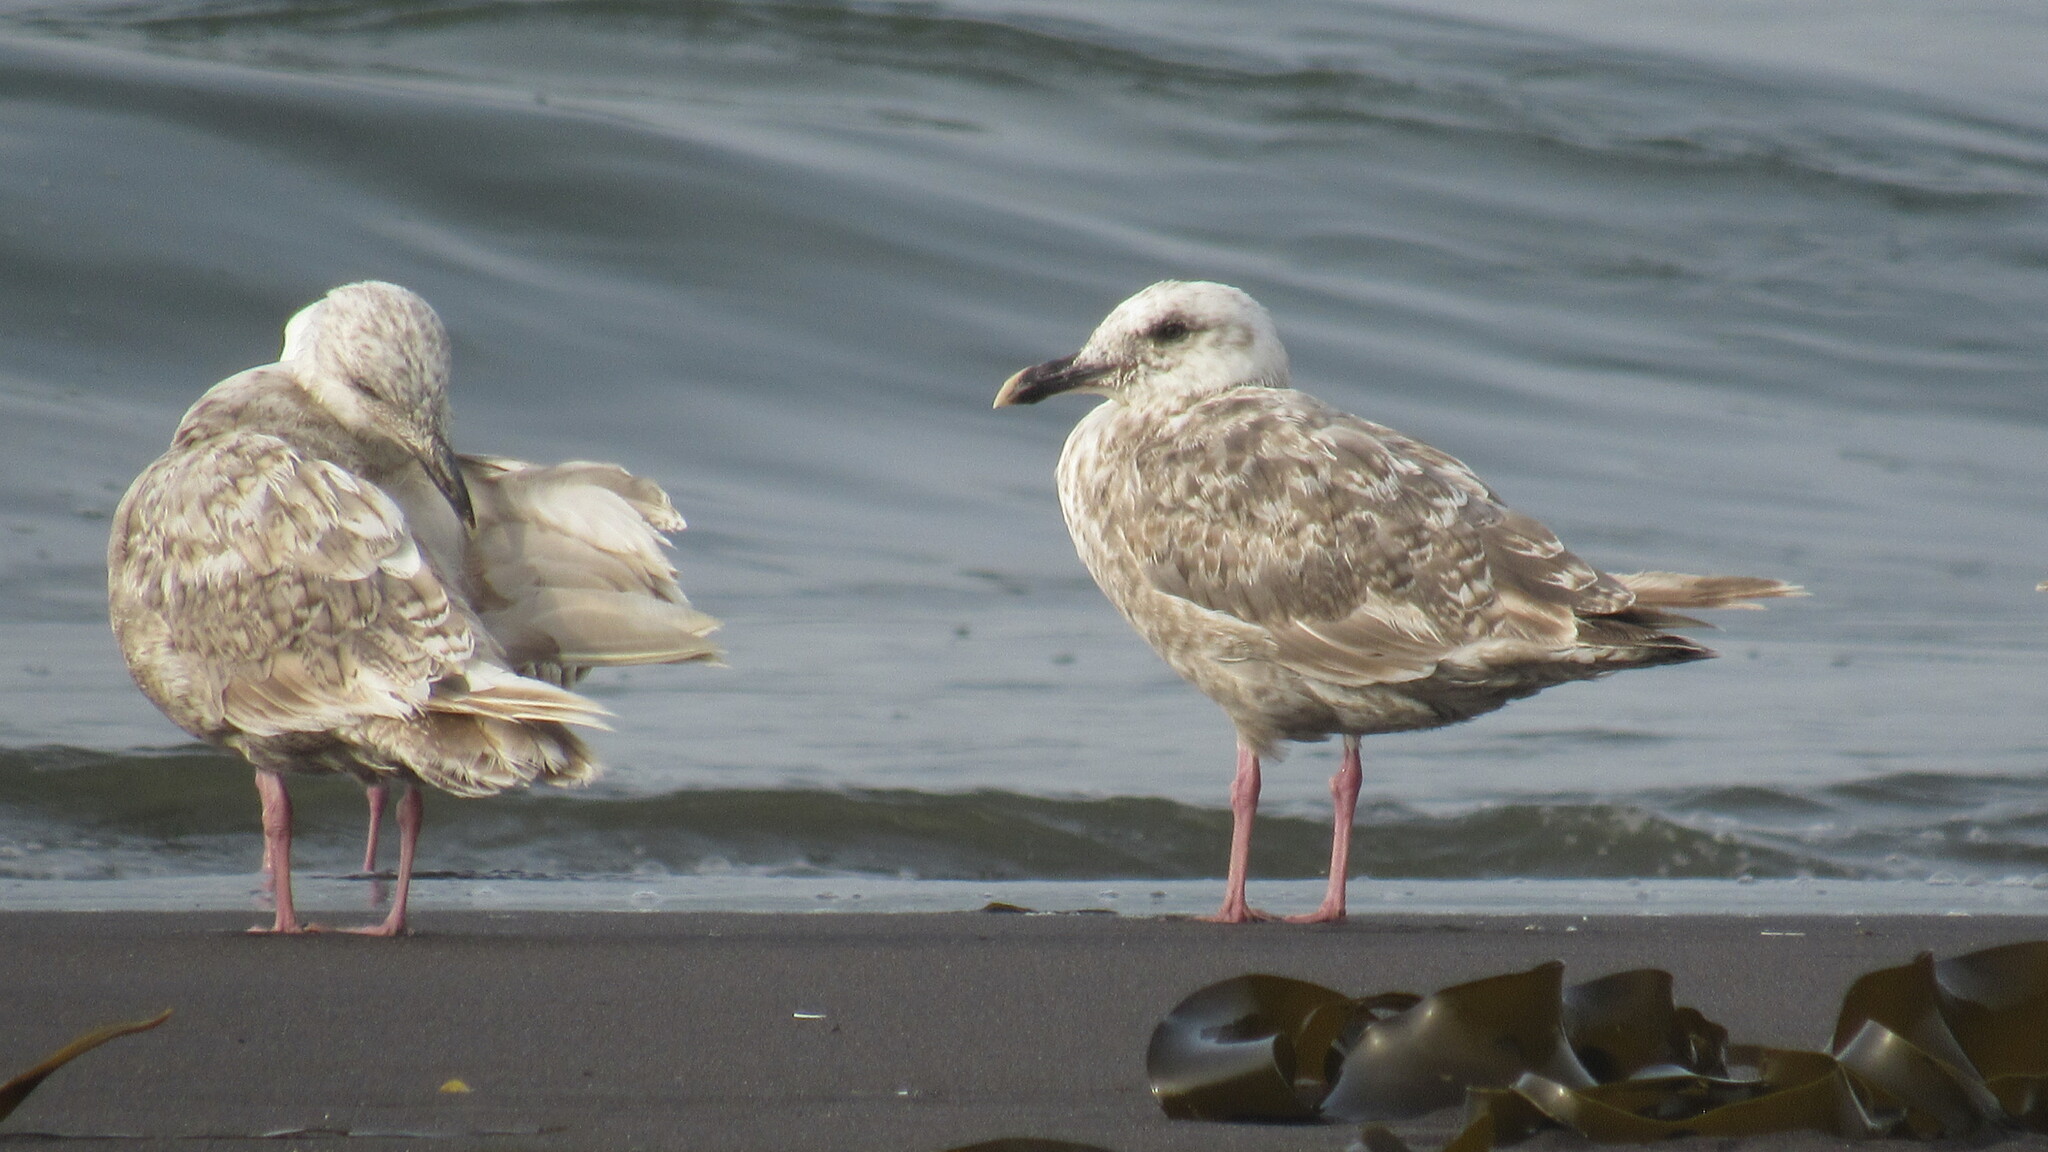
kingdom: Animalia
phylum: Chordata
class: Aves
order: Charadriiformes
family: Laridae
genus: Larus
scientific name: Larus schistisagus
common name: Slaty-backed gull
